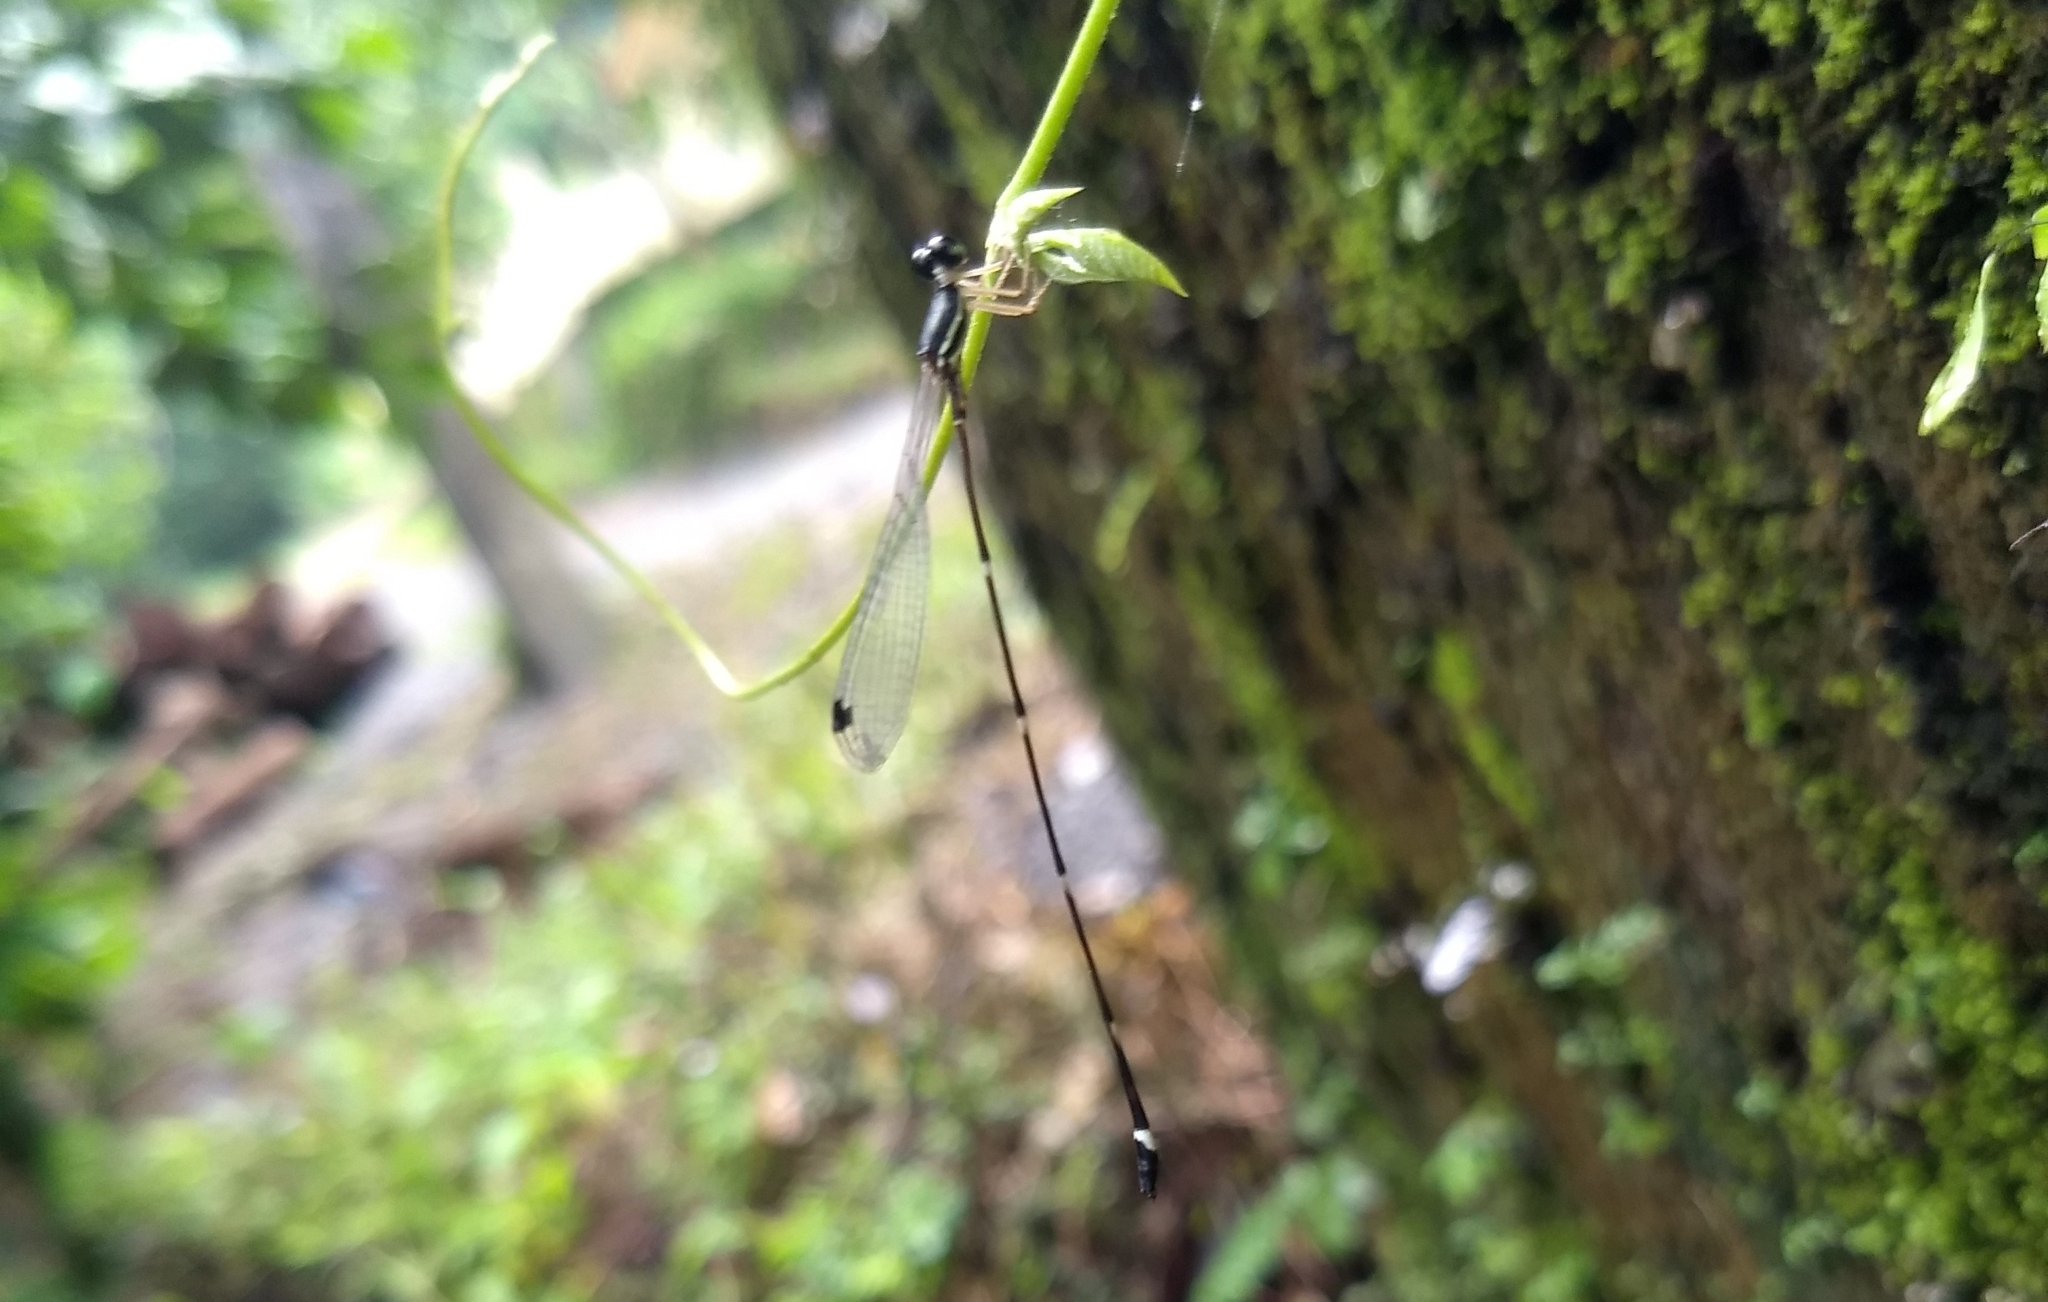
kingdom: Animalia
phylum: Arthropoda
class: Insecta
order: Odonata
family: Platystictidae
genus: Protosticta
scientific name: Protosticta gravelyi
